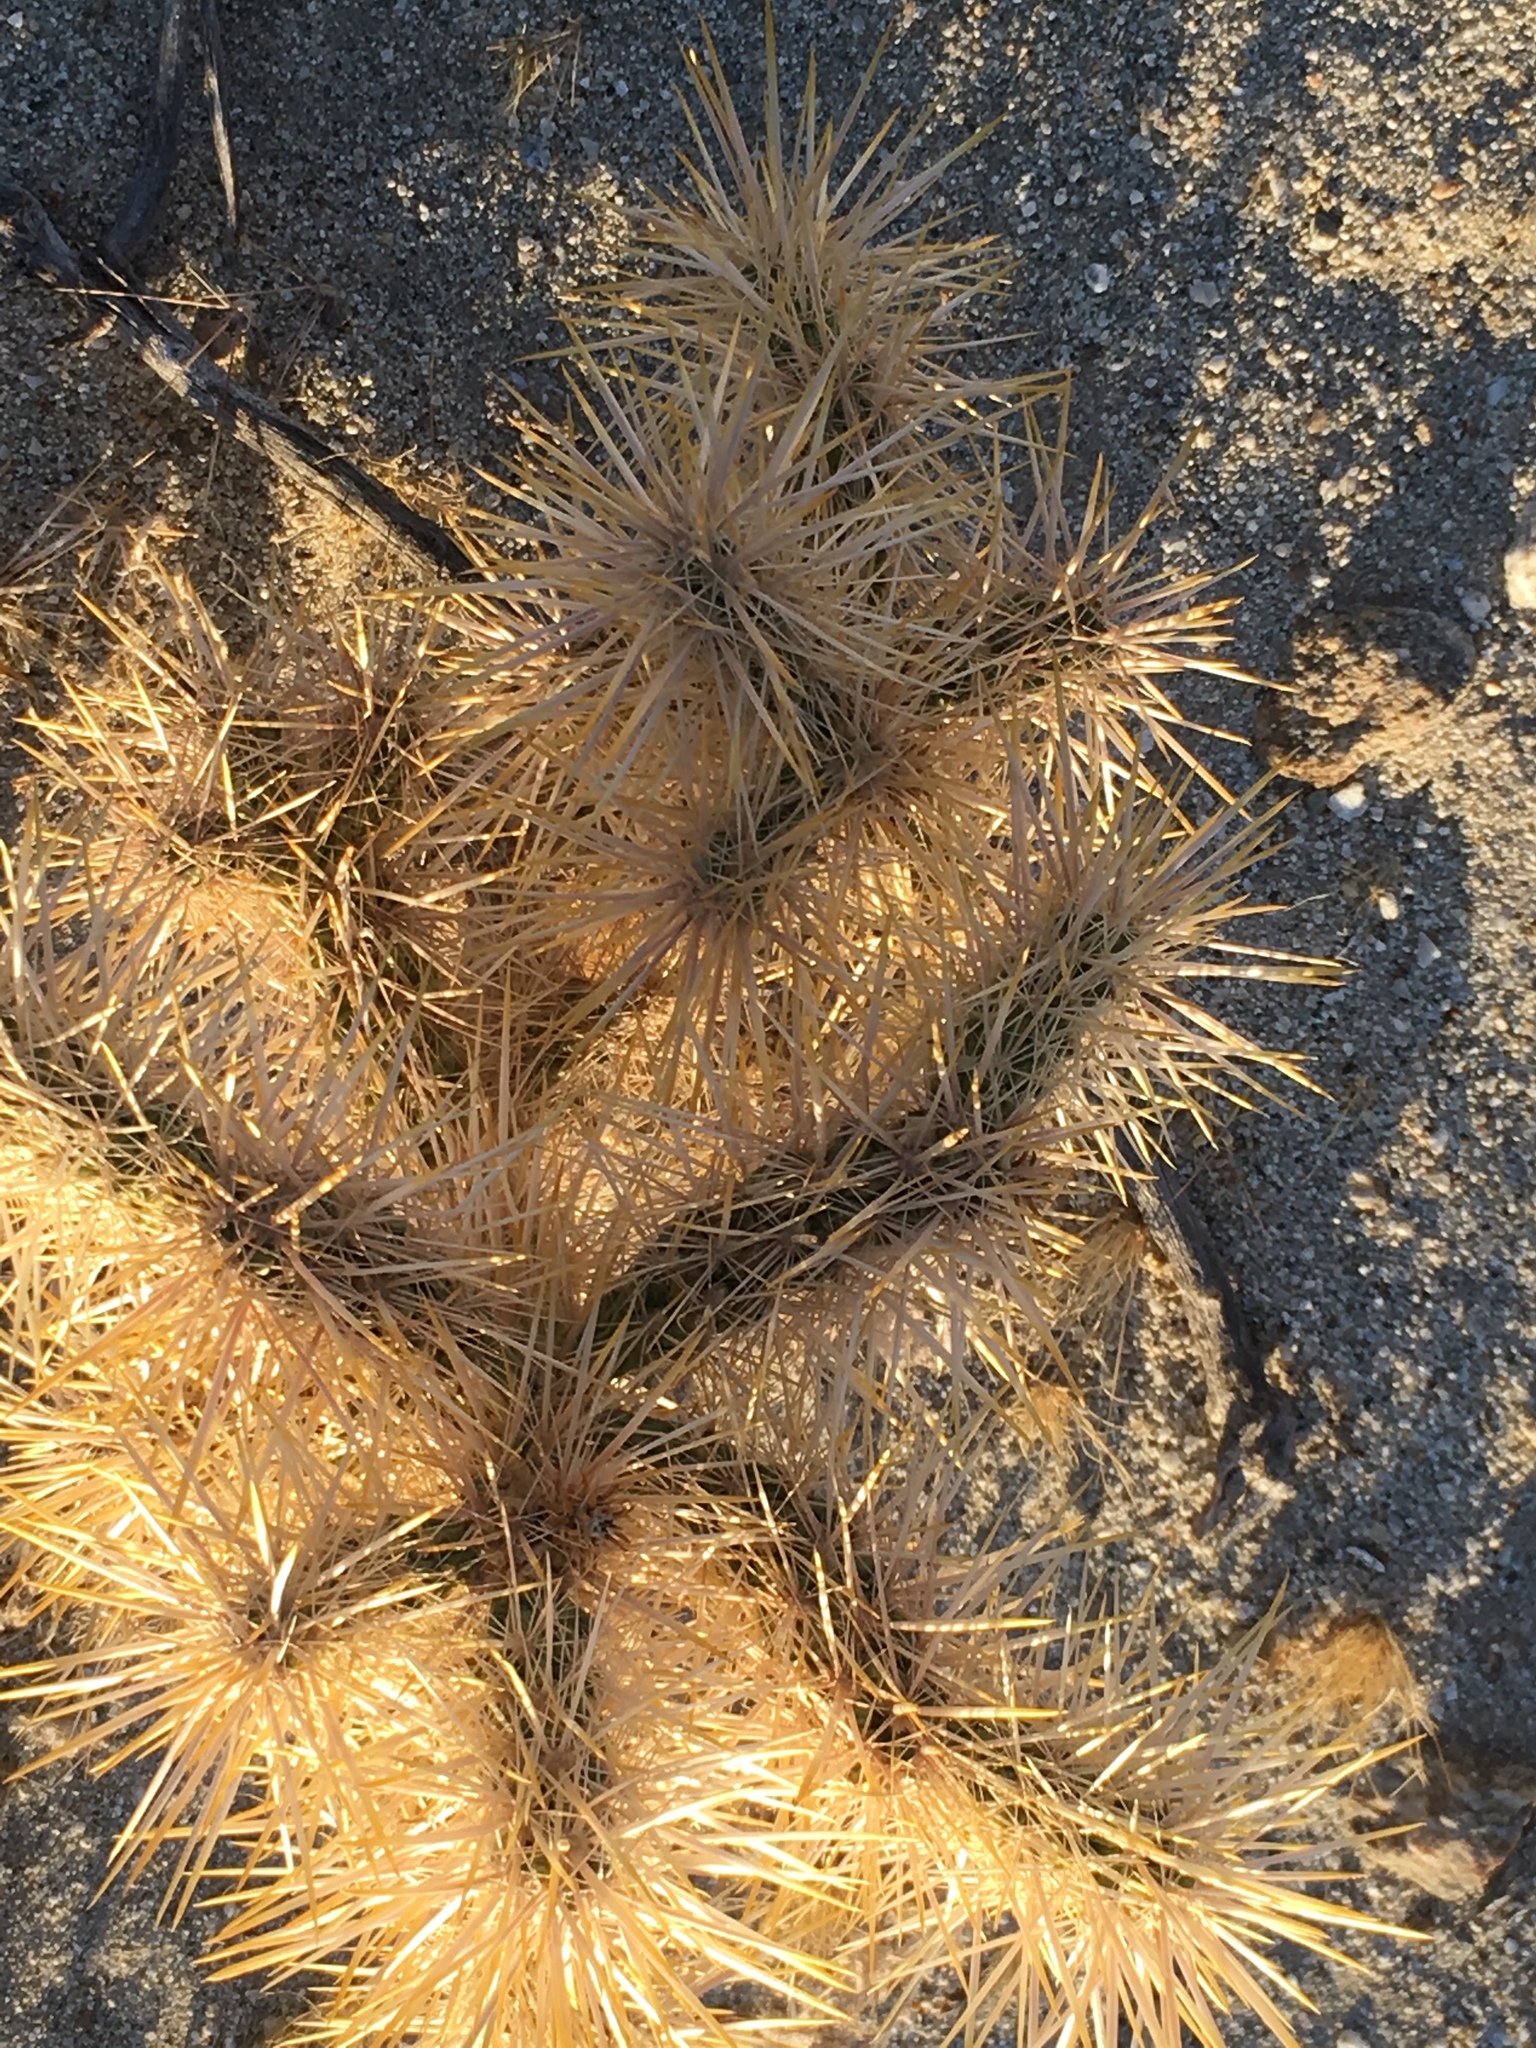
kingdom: Plantae
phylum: Tracheophyta
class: Magnoliopsida
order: Caryophyllales
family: Cactaceae
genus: Cylindropuntia
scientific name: Cylindropuntia echinocarpa
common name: Ground cholla
